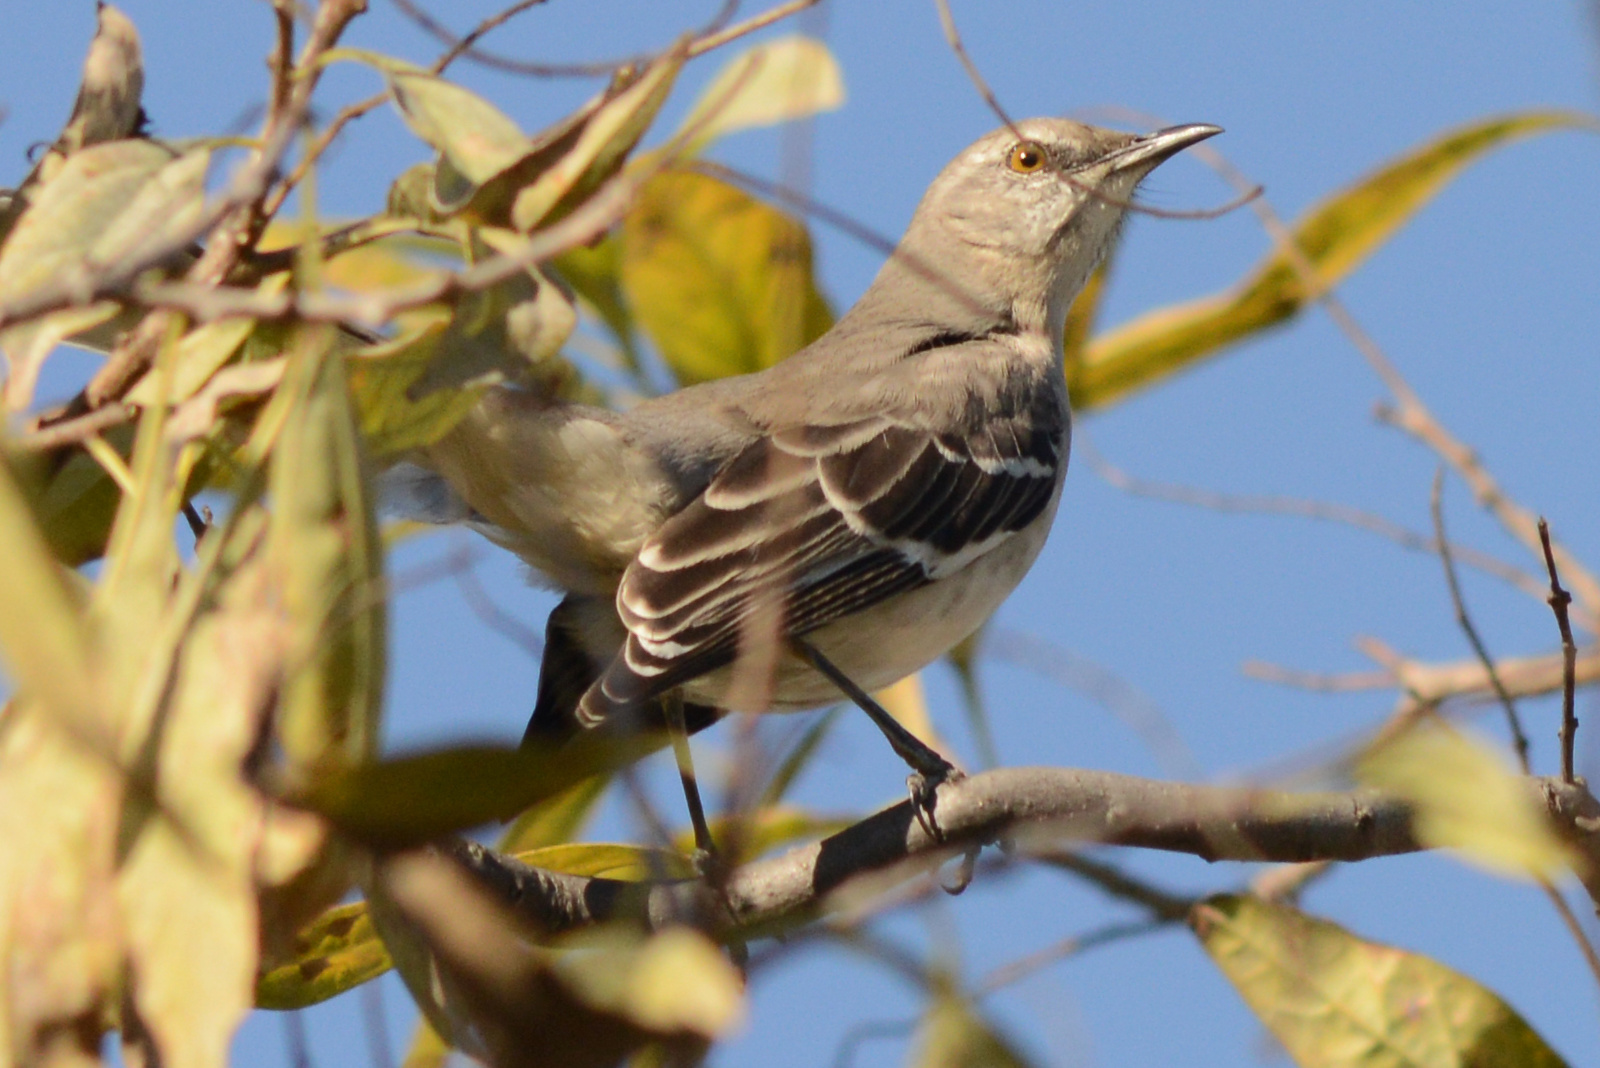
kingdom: Animalia
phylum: Chordata
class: Aves
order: Passeriformes
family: Mimidae
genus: Mimus
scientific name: Mimus polyglottos
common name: Northern mockingbird
